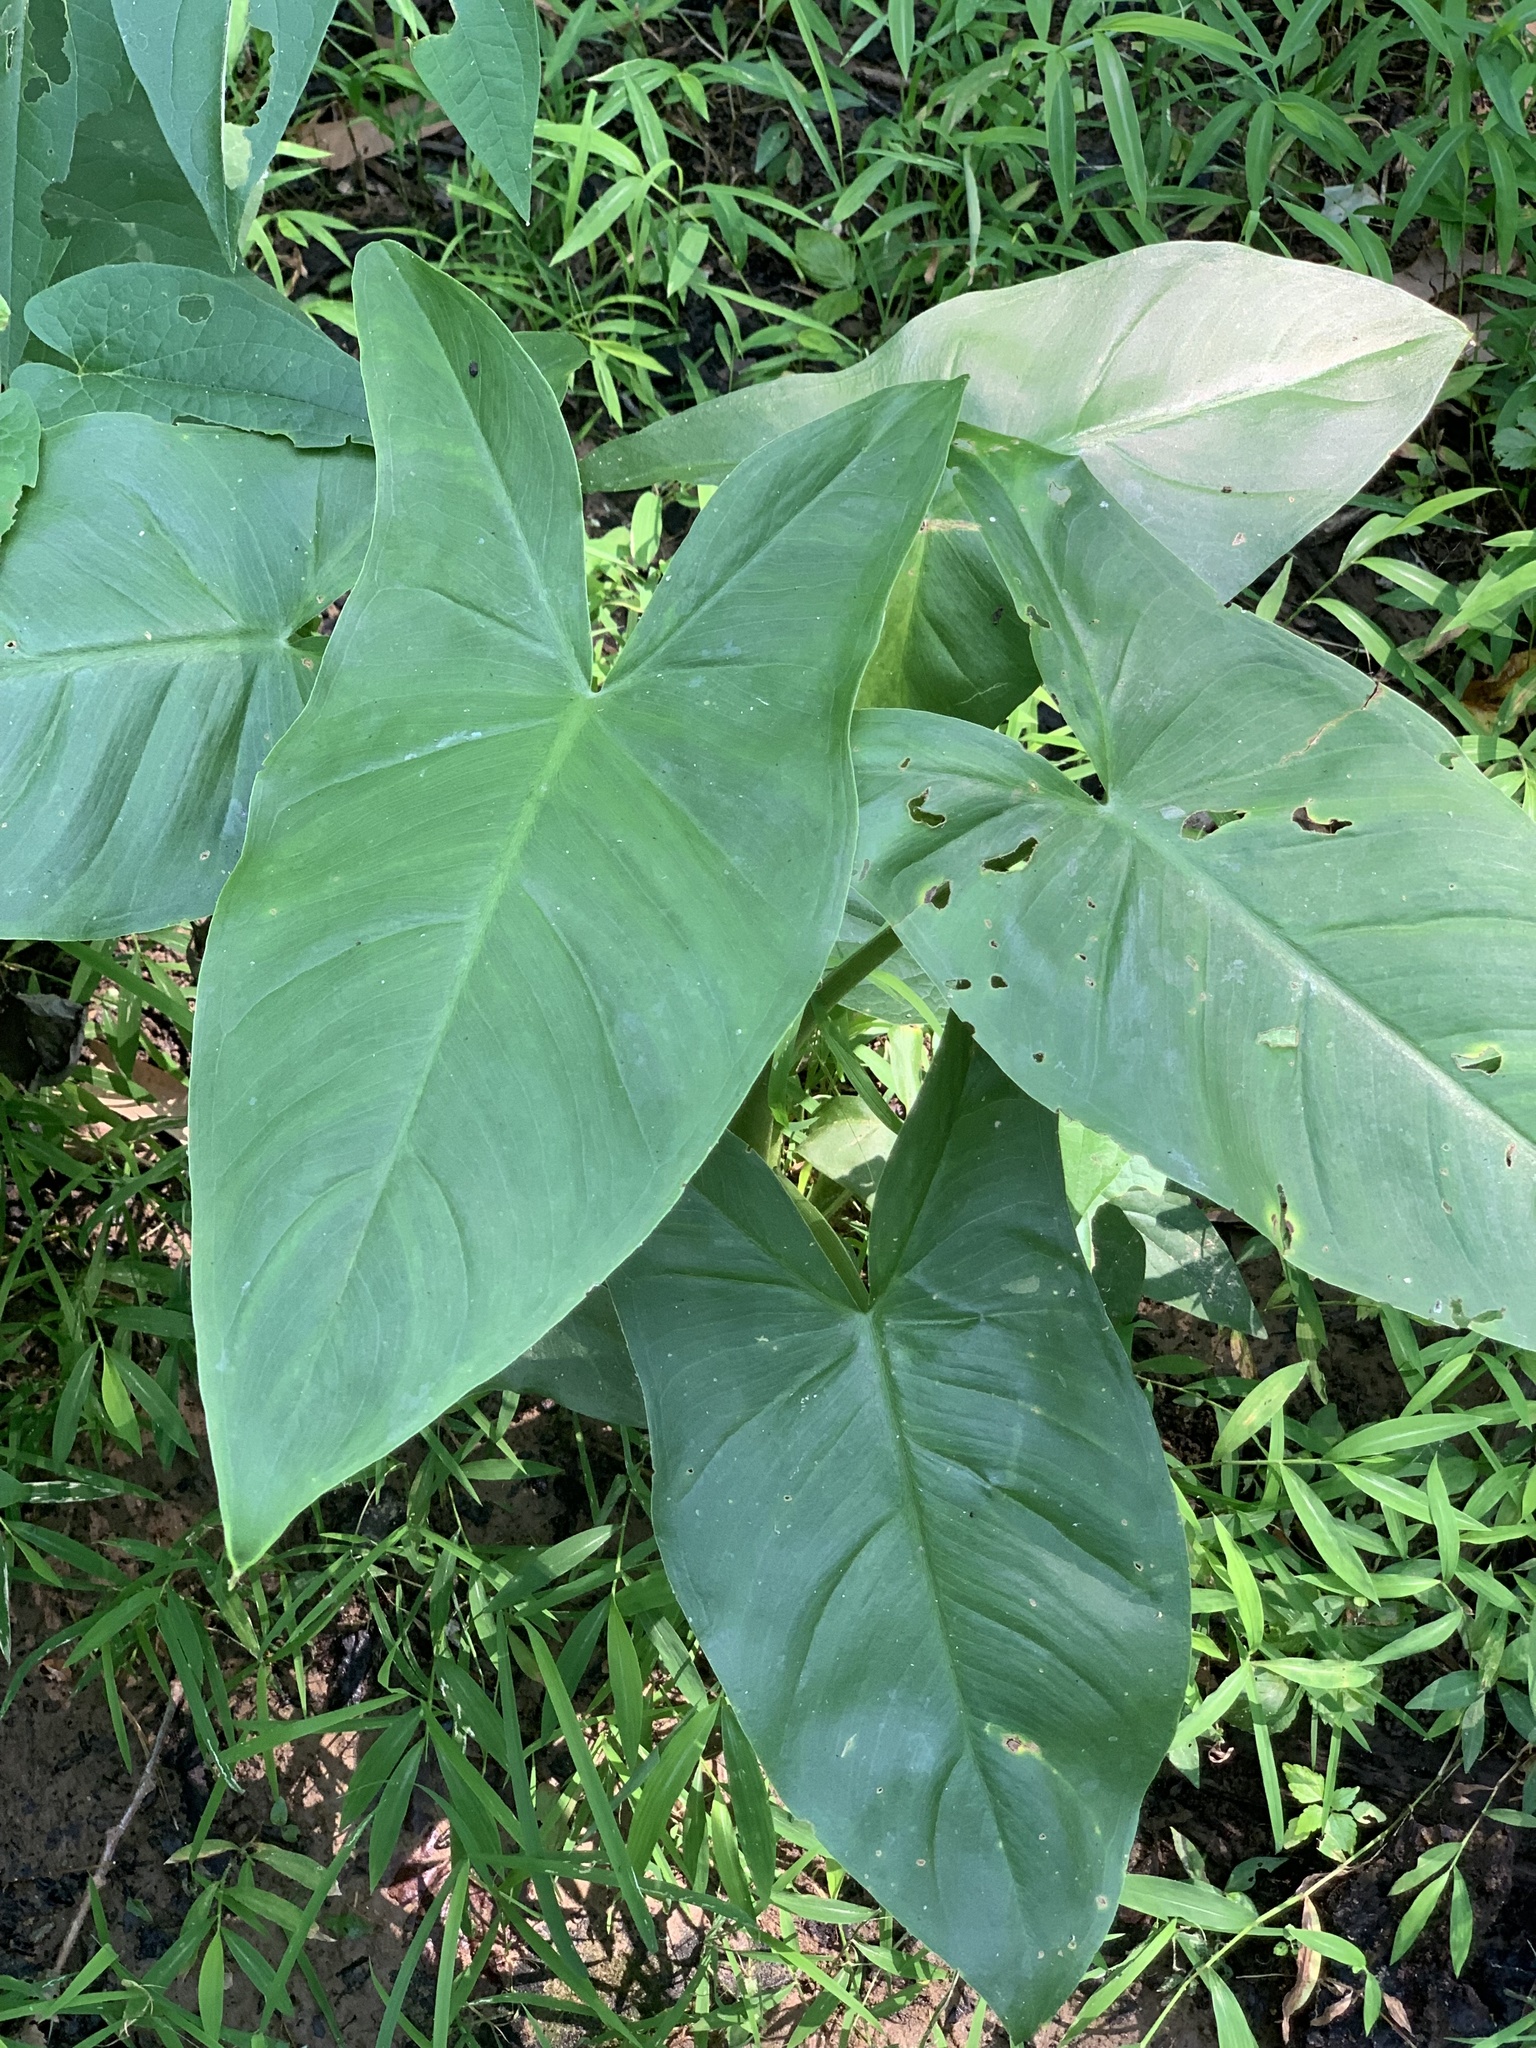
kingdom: Plantae
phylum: Tracheophyta
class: Liliopsida
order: Alismatales
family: Araceae
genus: Peltandra
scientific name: Peltandra virginica
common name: Arrow arum
